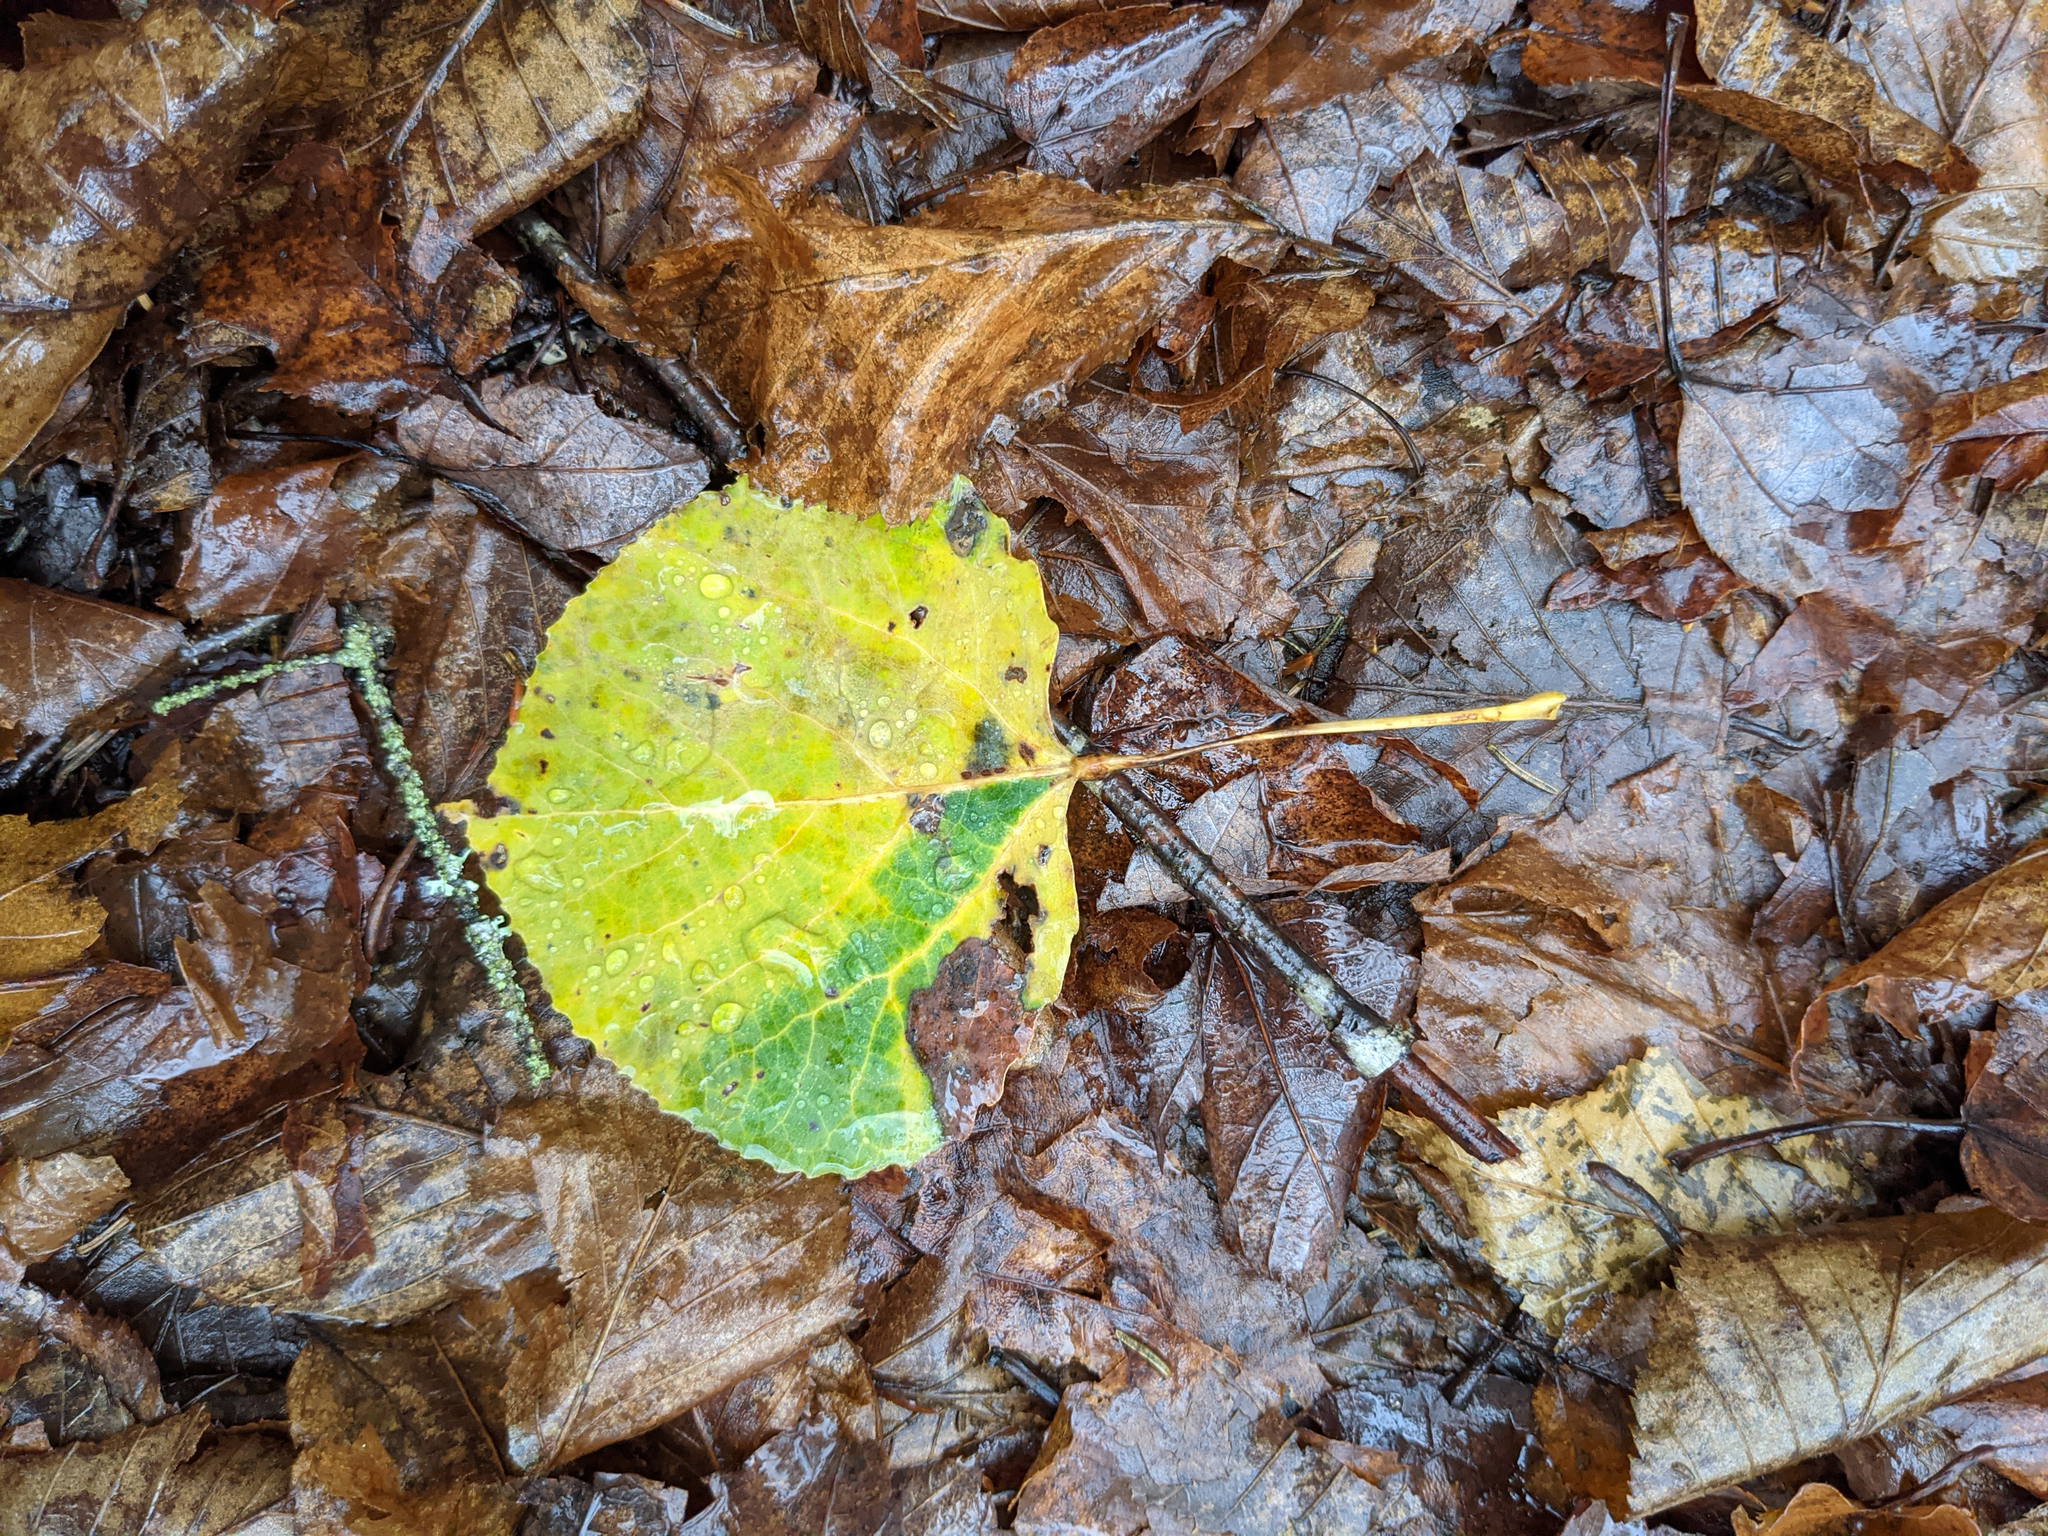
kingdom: Plantae
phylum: Tracheophyta
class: Magnoliopsida
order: Malpighiales
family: Salicaceae
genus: Populus
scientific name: Populus tremuloides
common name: Quaking aspen
